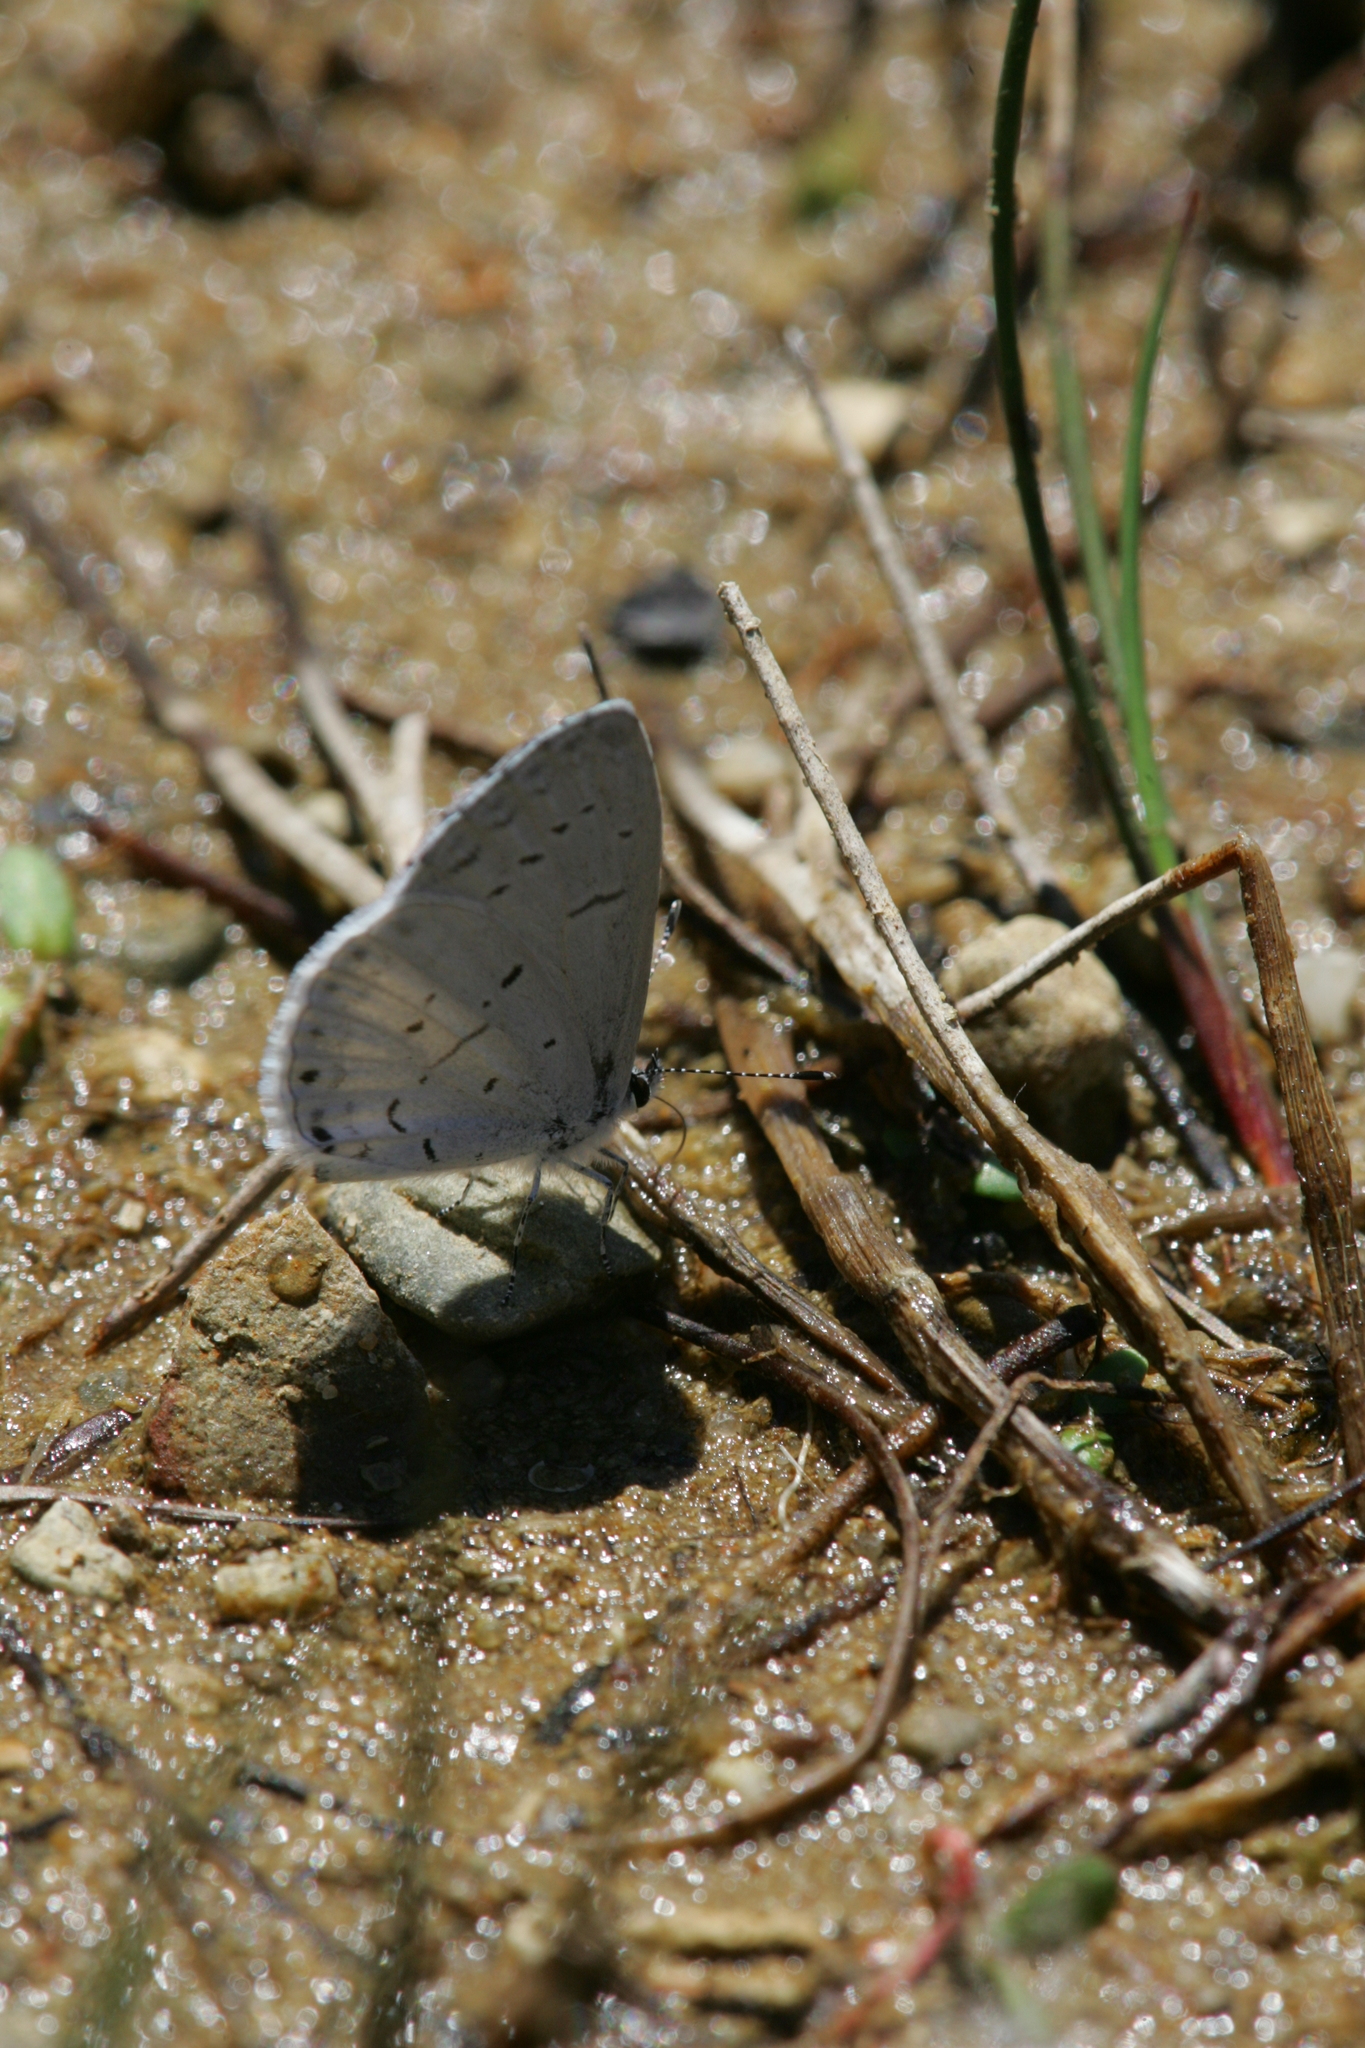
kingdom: Animalia
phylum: Arthropoda
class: Insecta
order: Lepidoptera
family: Lycaenidae
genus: Cyaniris
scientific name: Cyaniris neglecta
